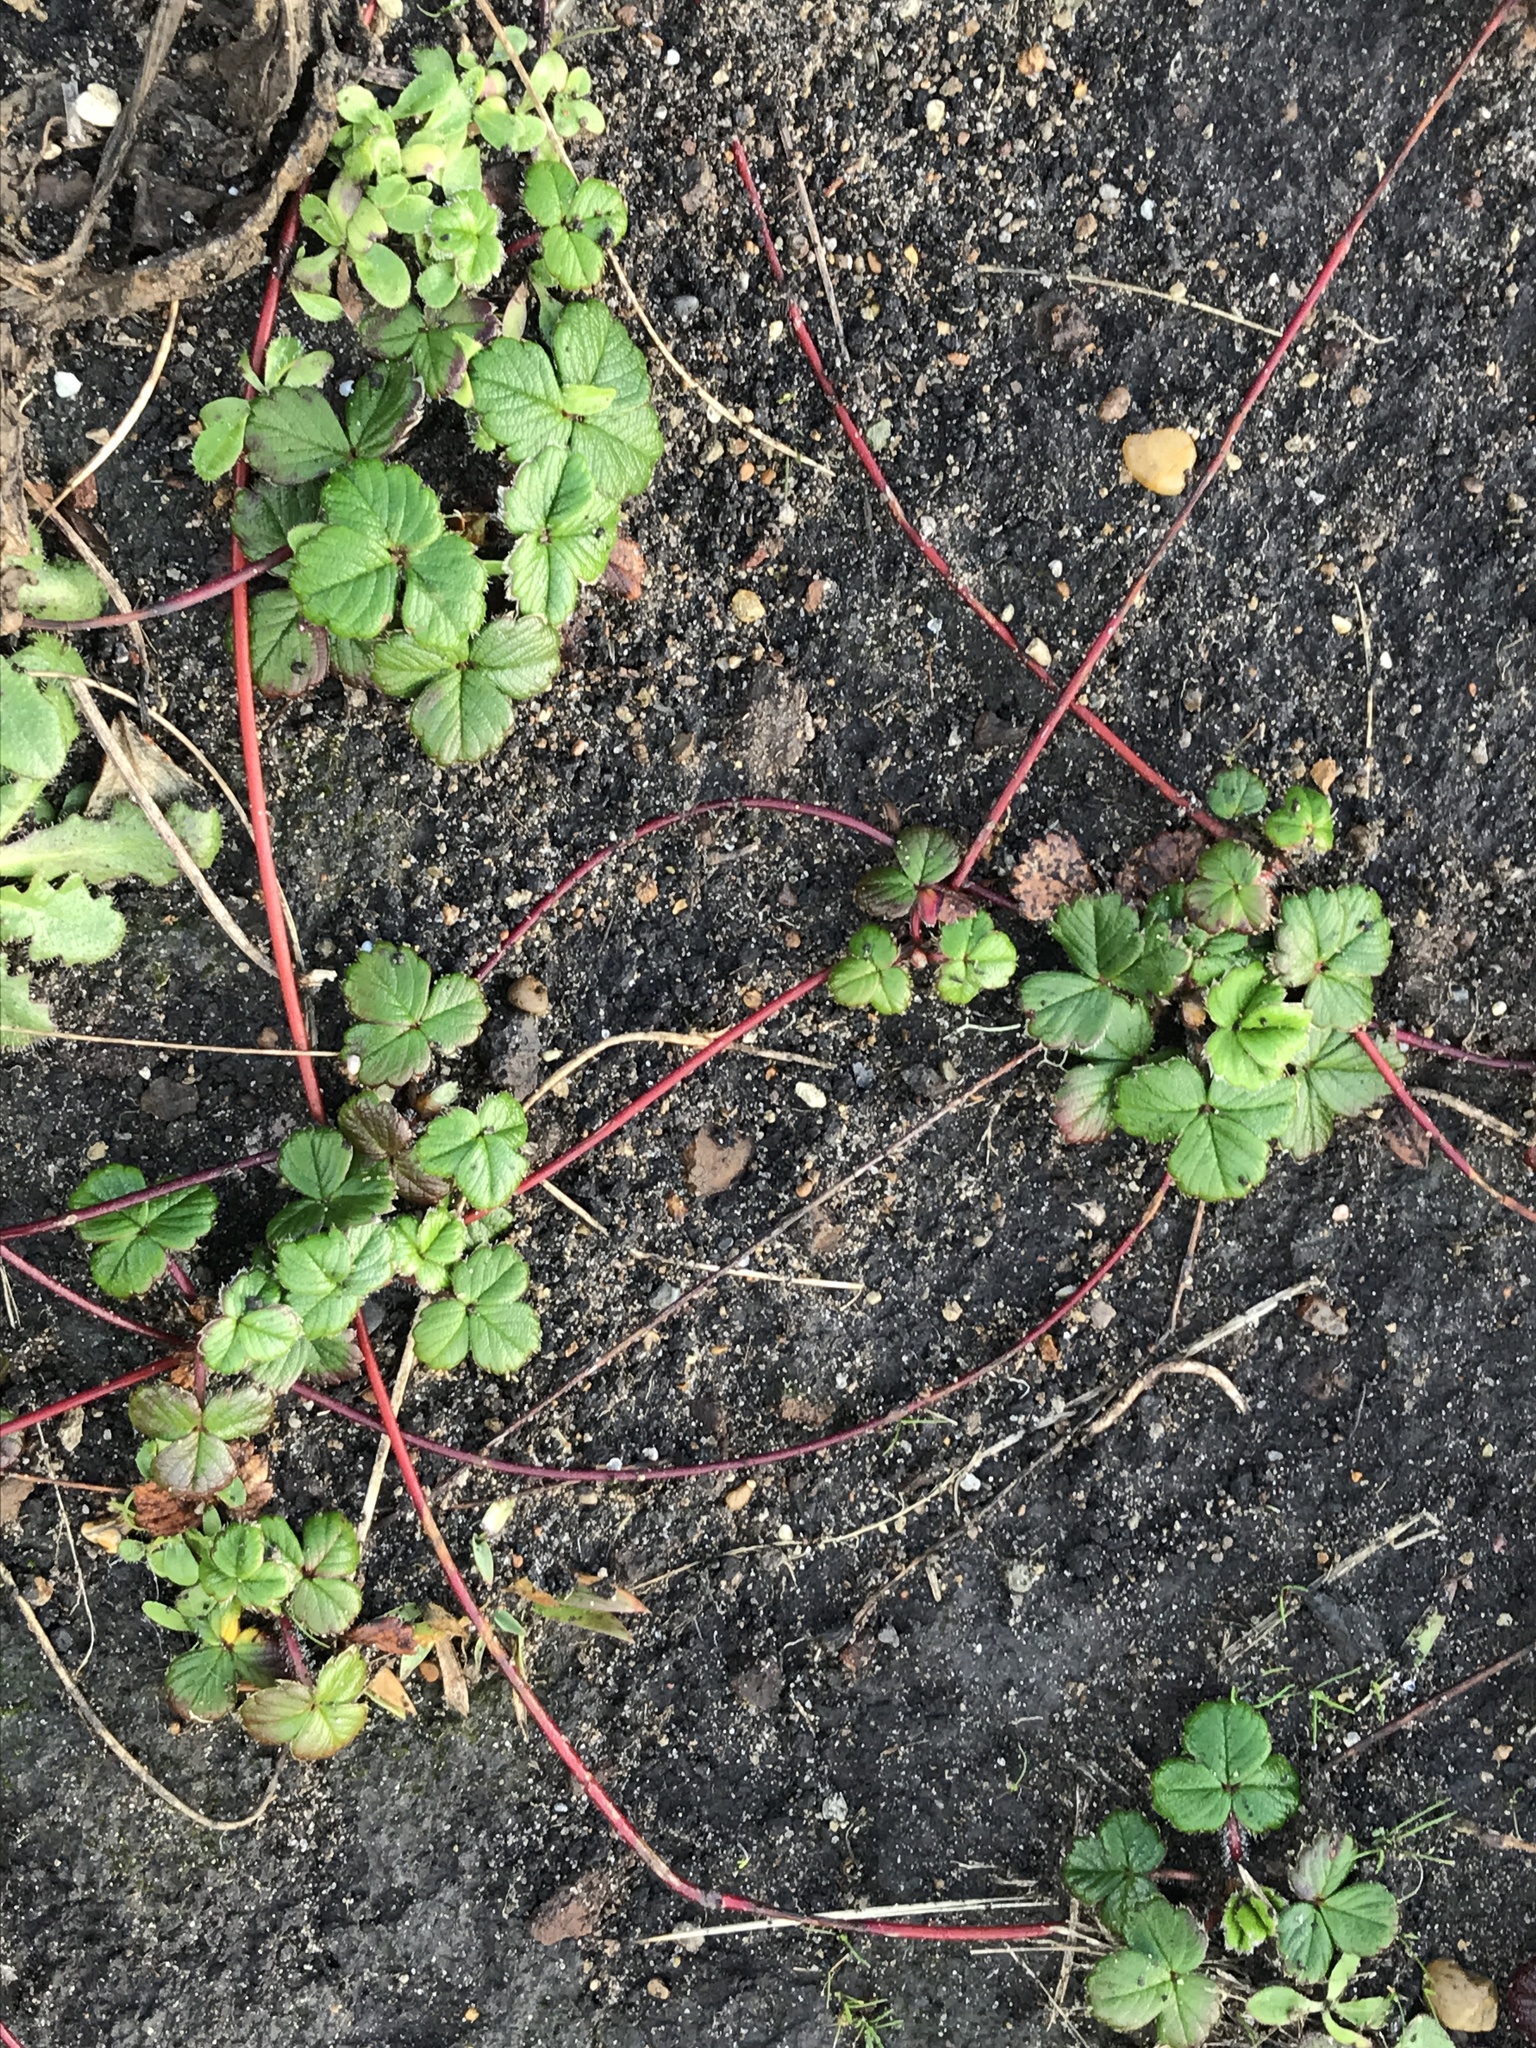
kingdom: Plantae
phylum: Tracheophyta
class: Magnoliopsida
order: Rosales
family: Rosaceae
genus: Fragaria
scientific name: Fragaria chiloensis
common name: Beach strawberry
